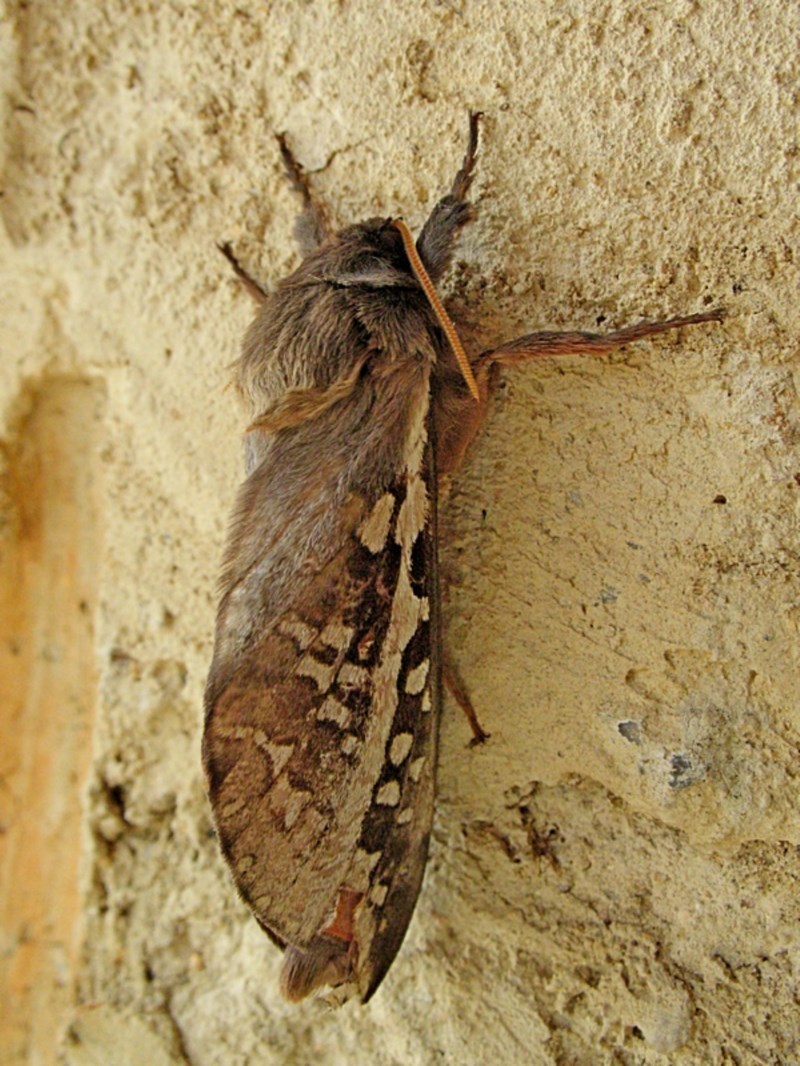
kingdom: Animalia
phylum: Arthropoda
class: Insecta
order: Lepidoptera
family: Hepialidae
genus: Oxycanus
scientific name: Oxycanus dirempta
